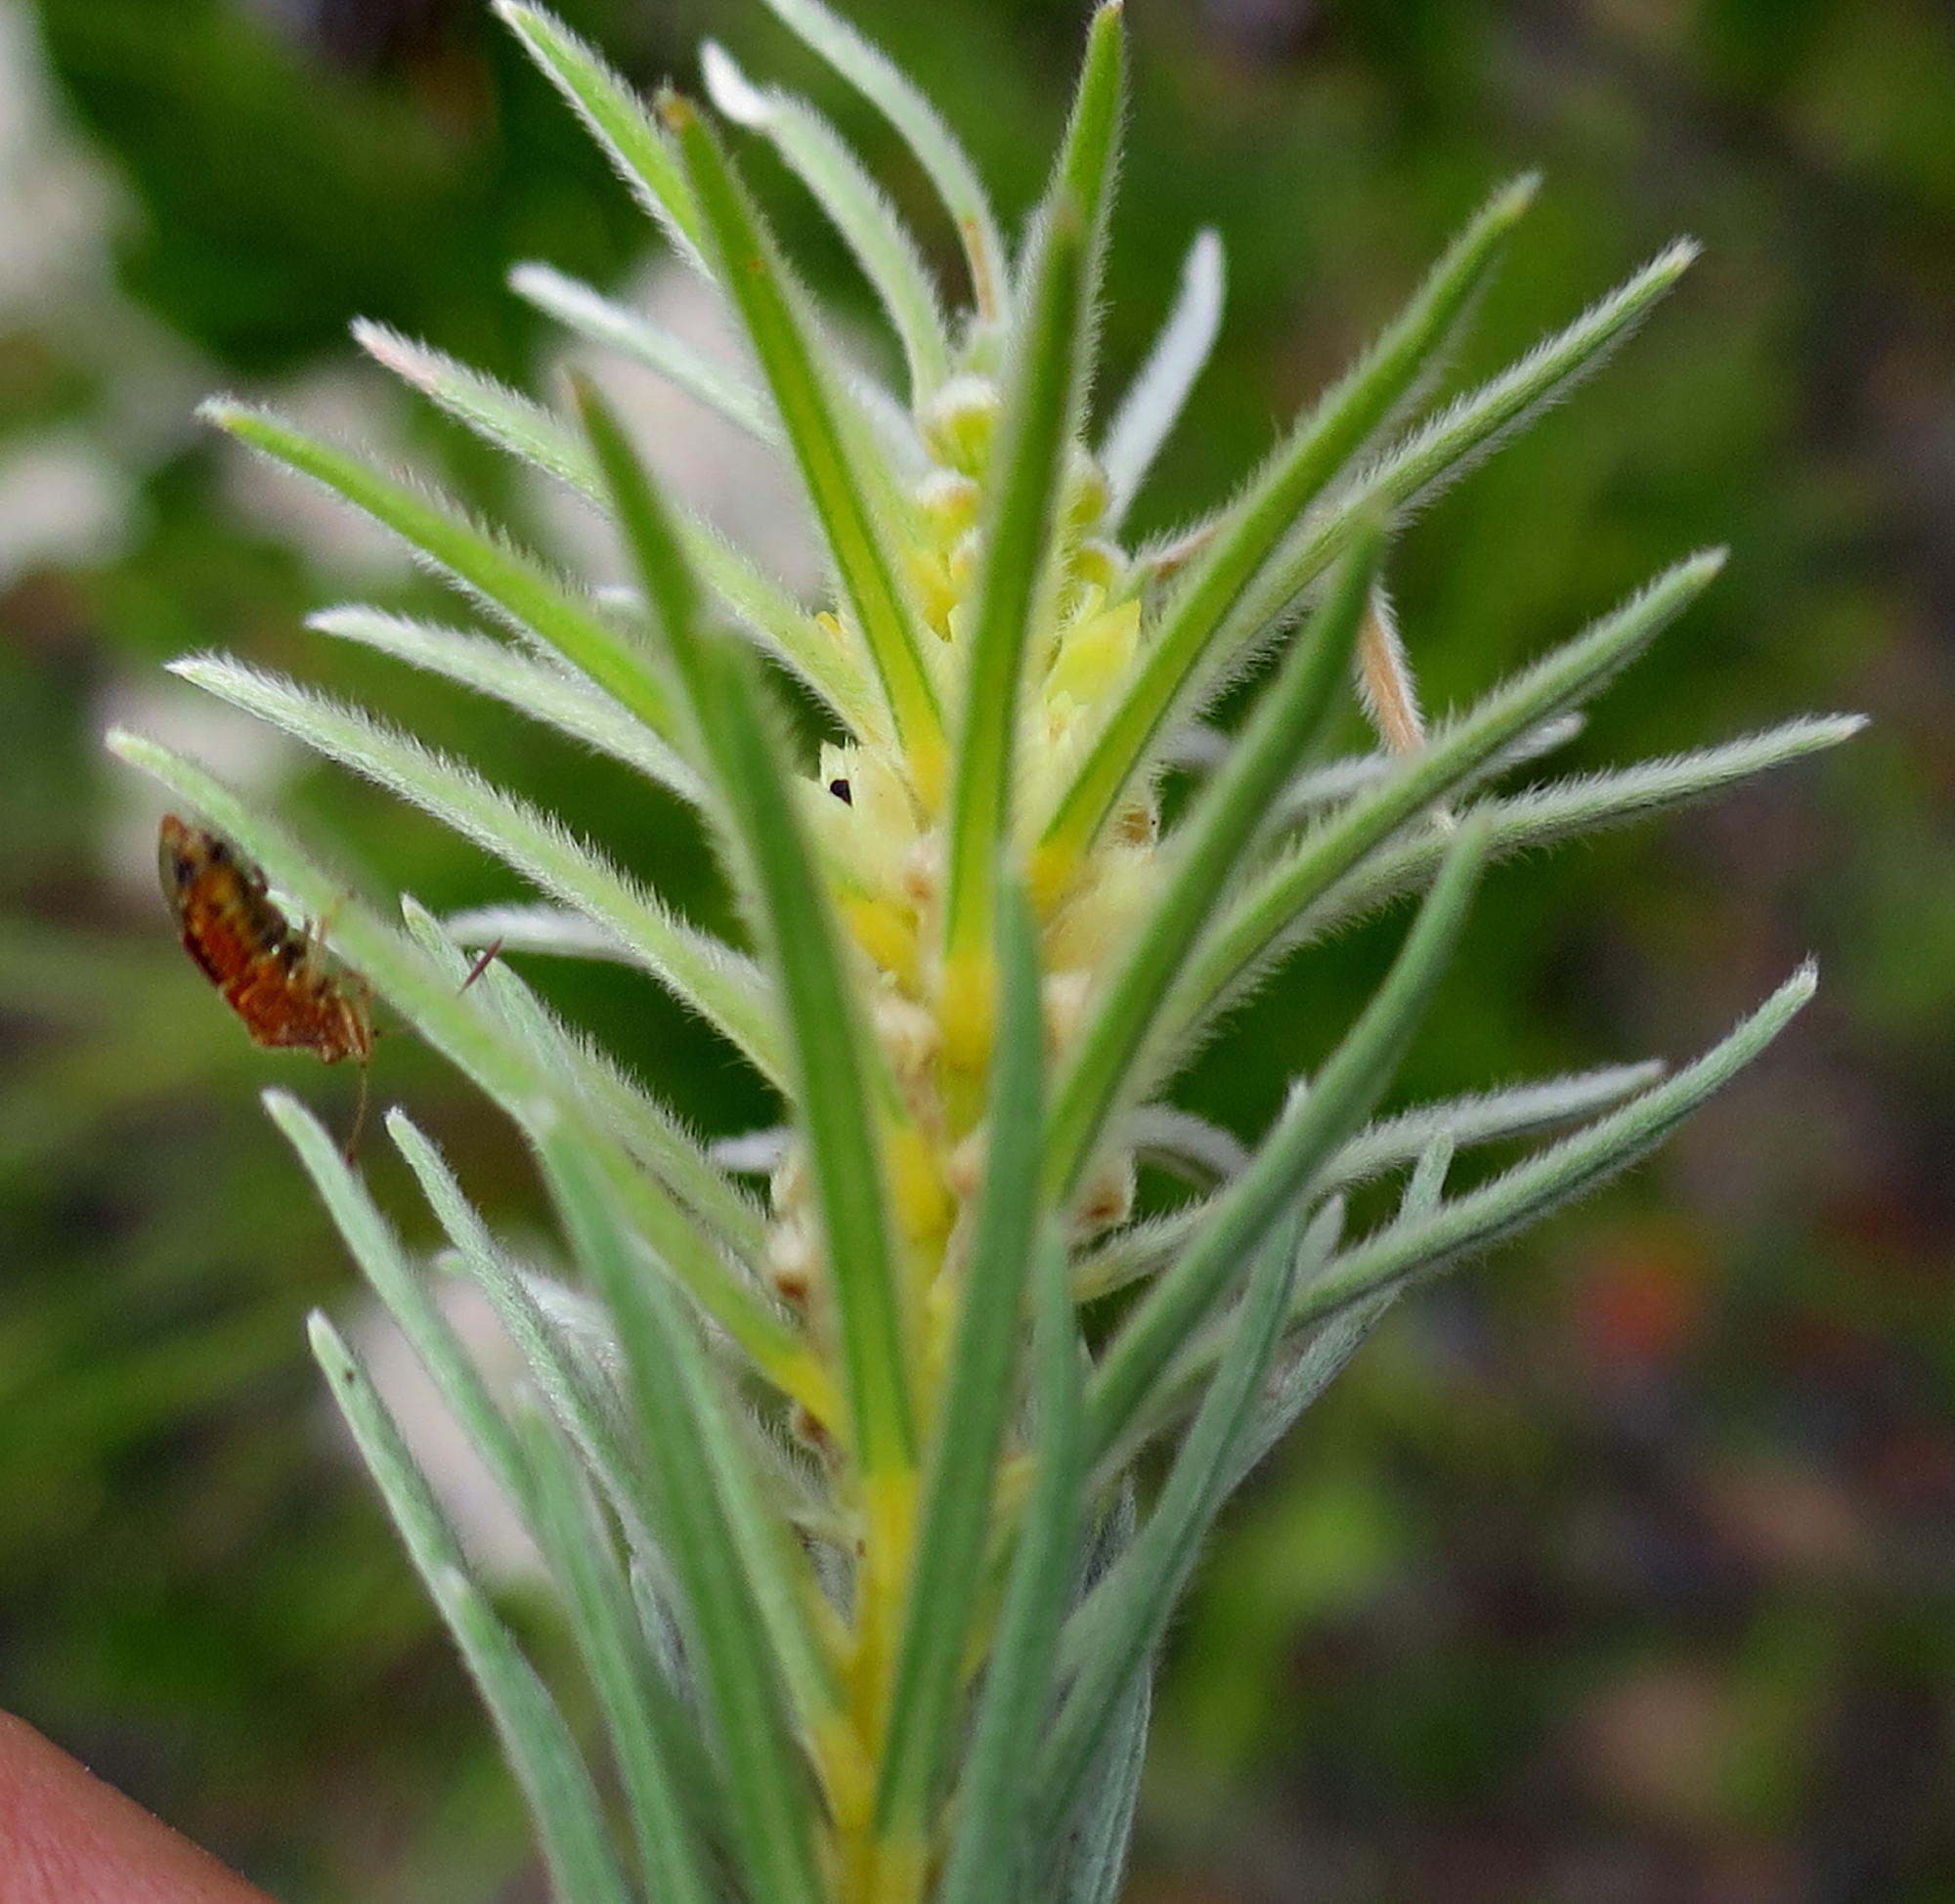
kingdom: Plantae
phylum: Tracheophyta
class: Magnoliopsida
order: Rosales
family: Rhamnaceae
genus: Phylica
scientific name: Phylica velutina
